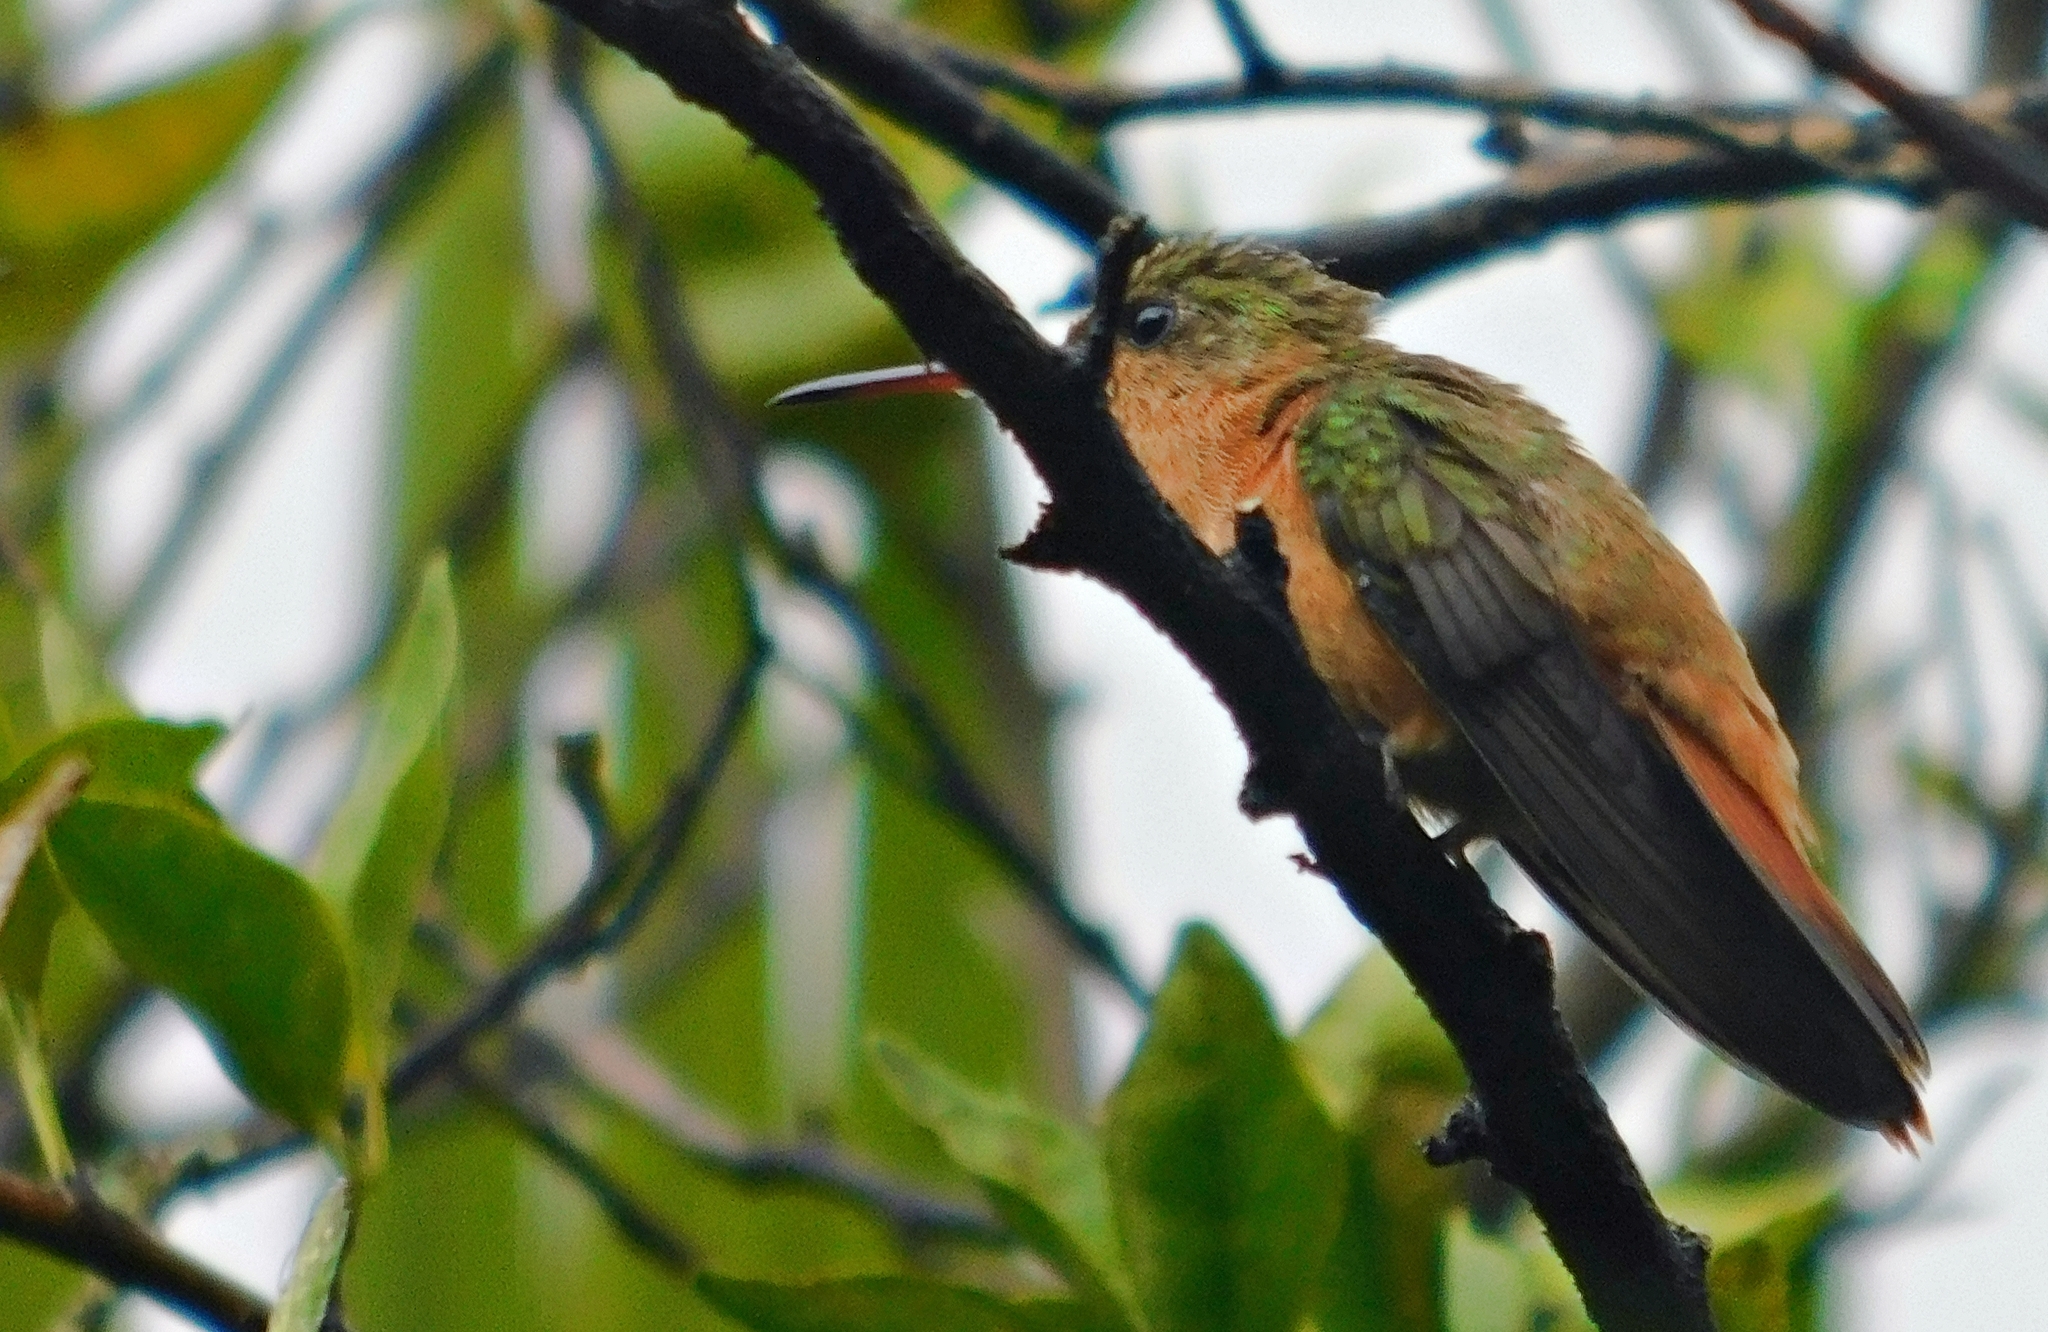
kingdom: Animalia
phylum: Chordata
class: Aves
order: Apodiformes
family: Trochilidae
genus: Amazilia
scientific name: Amazilia rutila
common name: Cinnamon hummingbird
